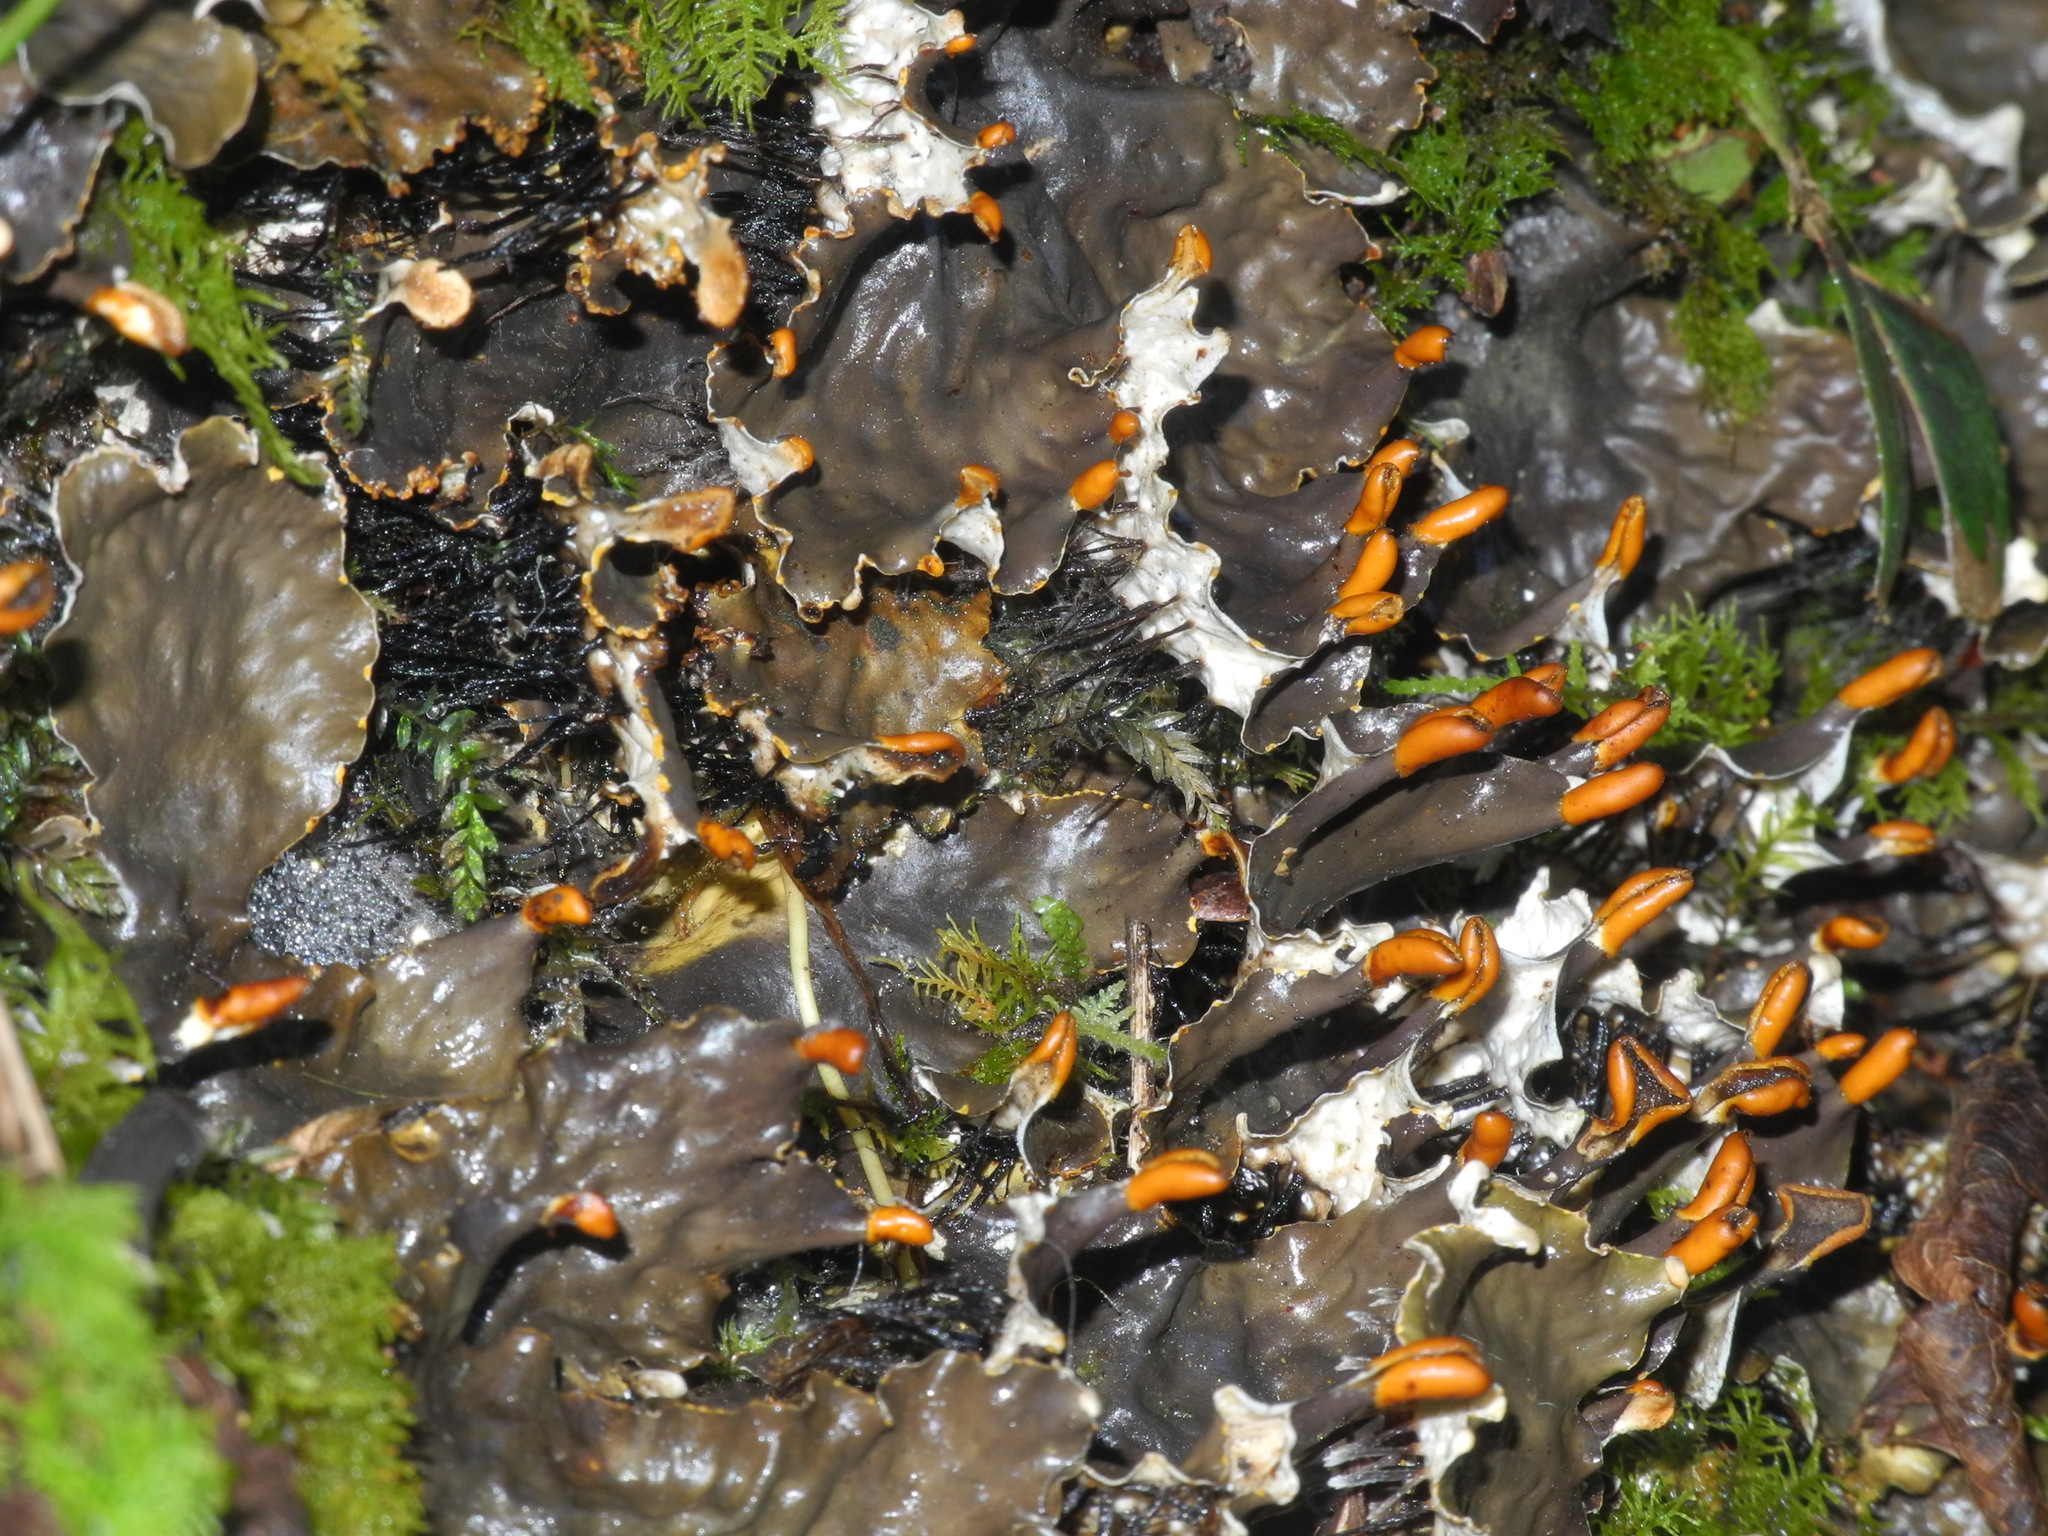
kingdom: Fungi
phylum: Ascomycota
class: Lecanoromycetes
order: Peltigerales
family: Peltigeraceae
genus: Peltigera
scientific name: Peltigera neopolydactyla
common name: Carpet pelt
